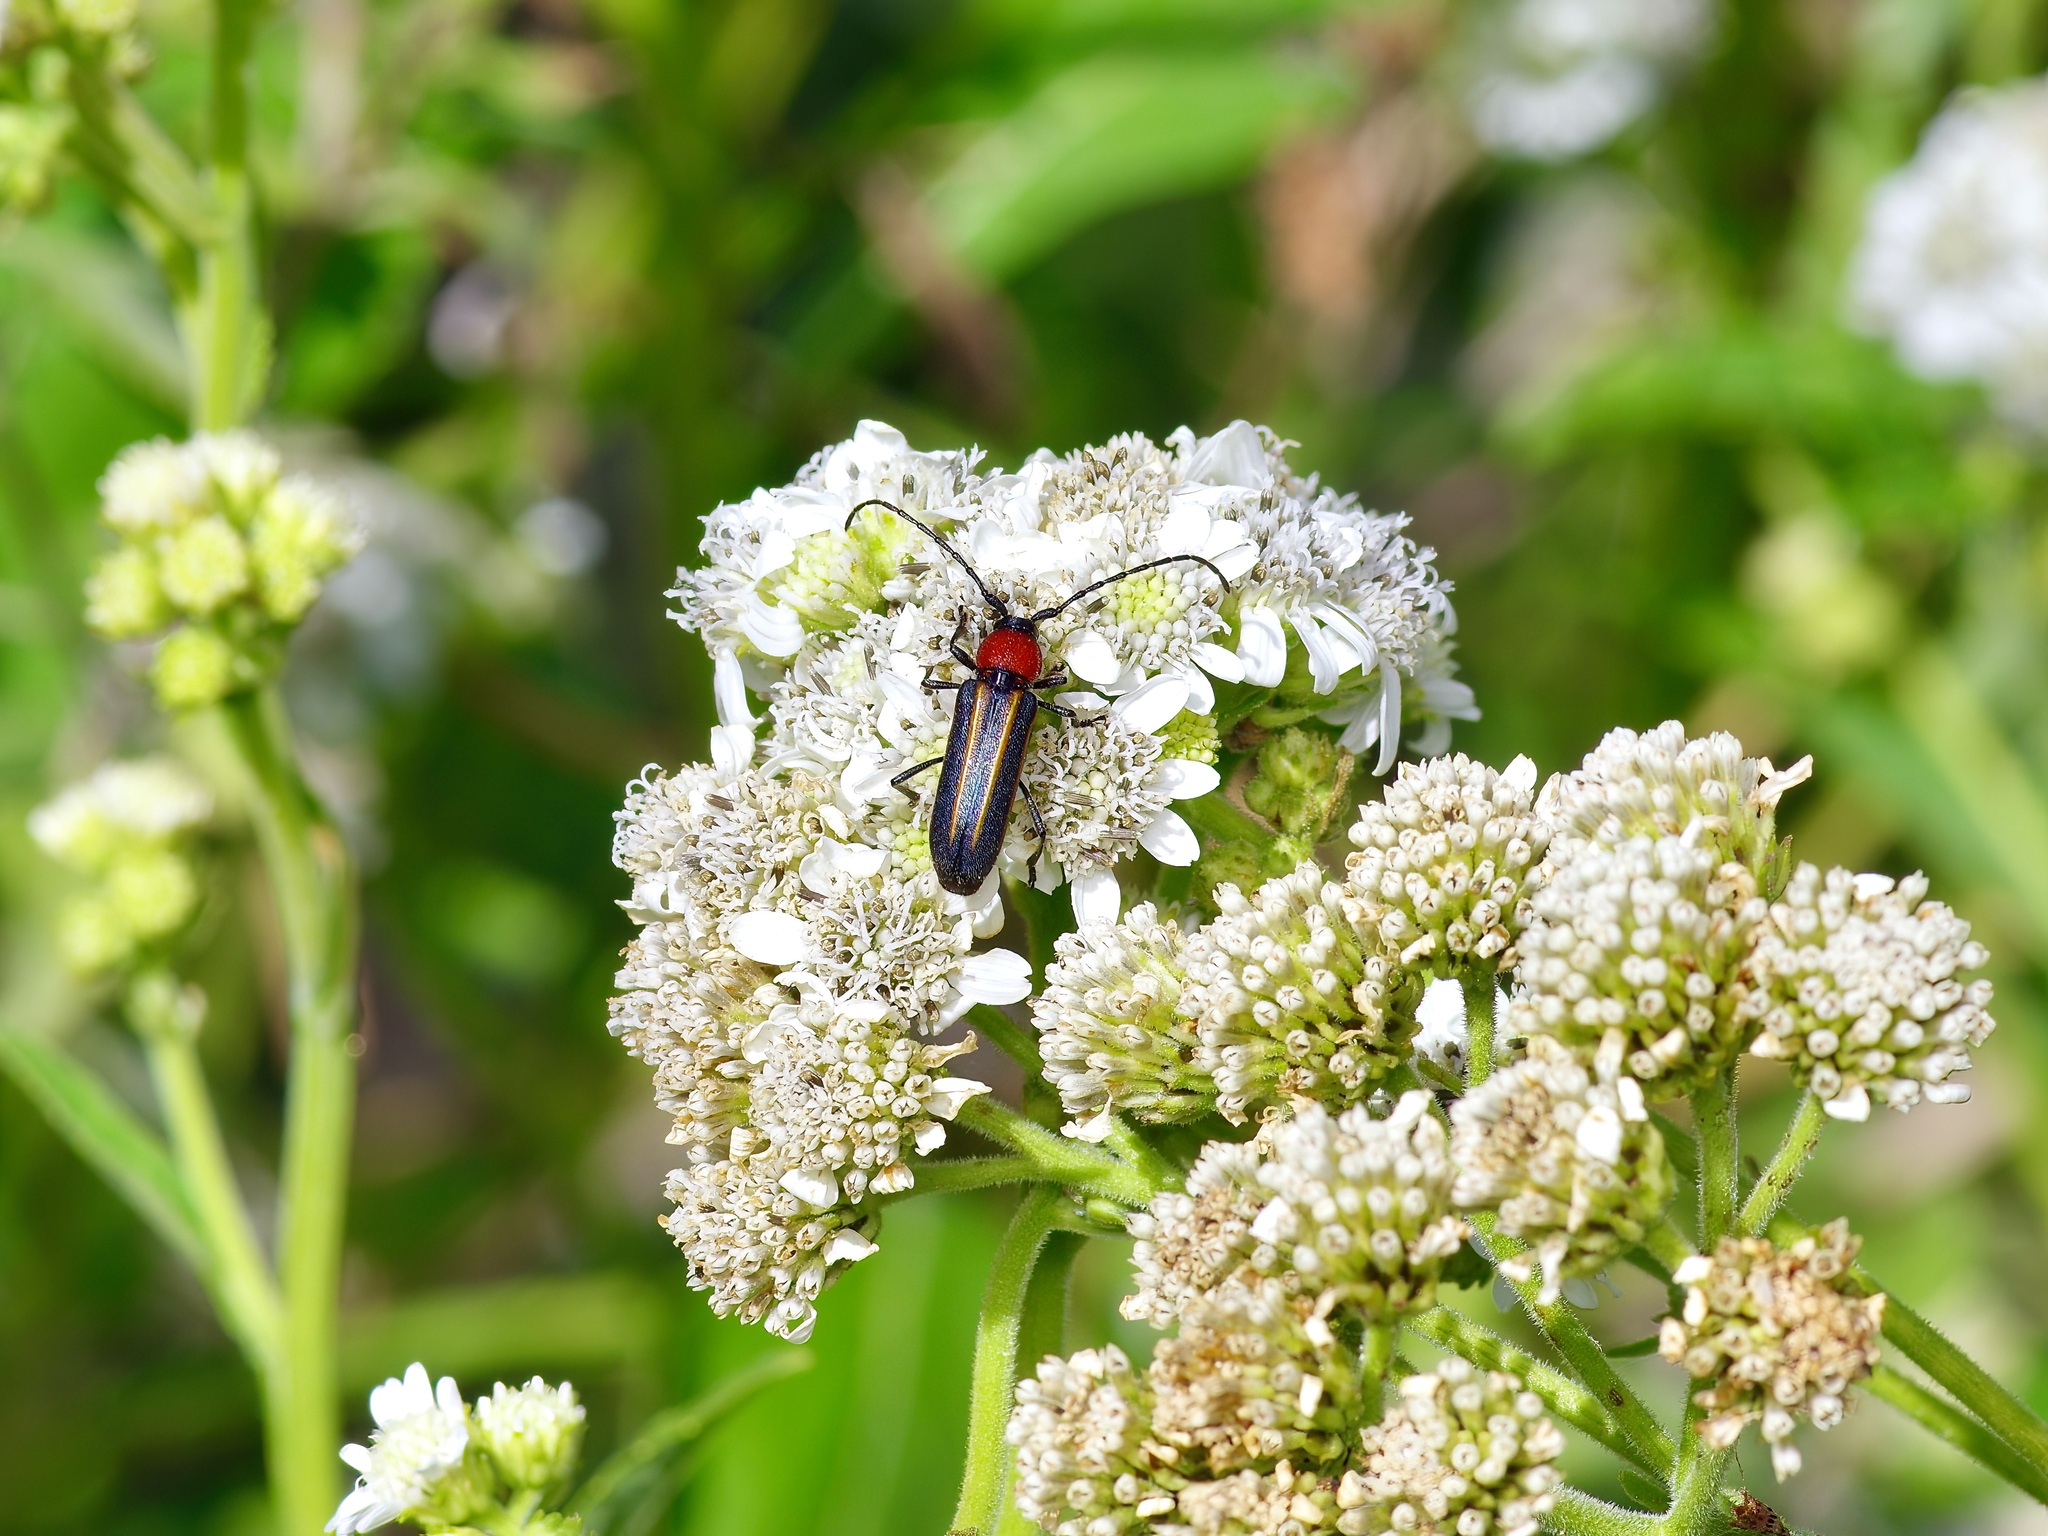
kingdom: Animalia
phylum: Arthropoda
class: Insecta
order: Coleoptera
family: Cerambycidae
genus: Mannophorus
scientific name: Mannophorus laetus
